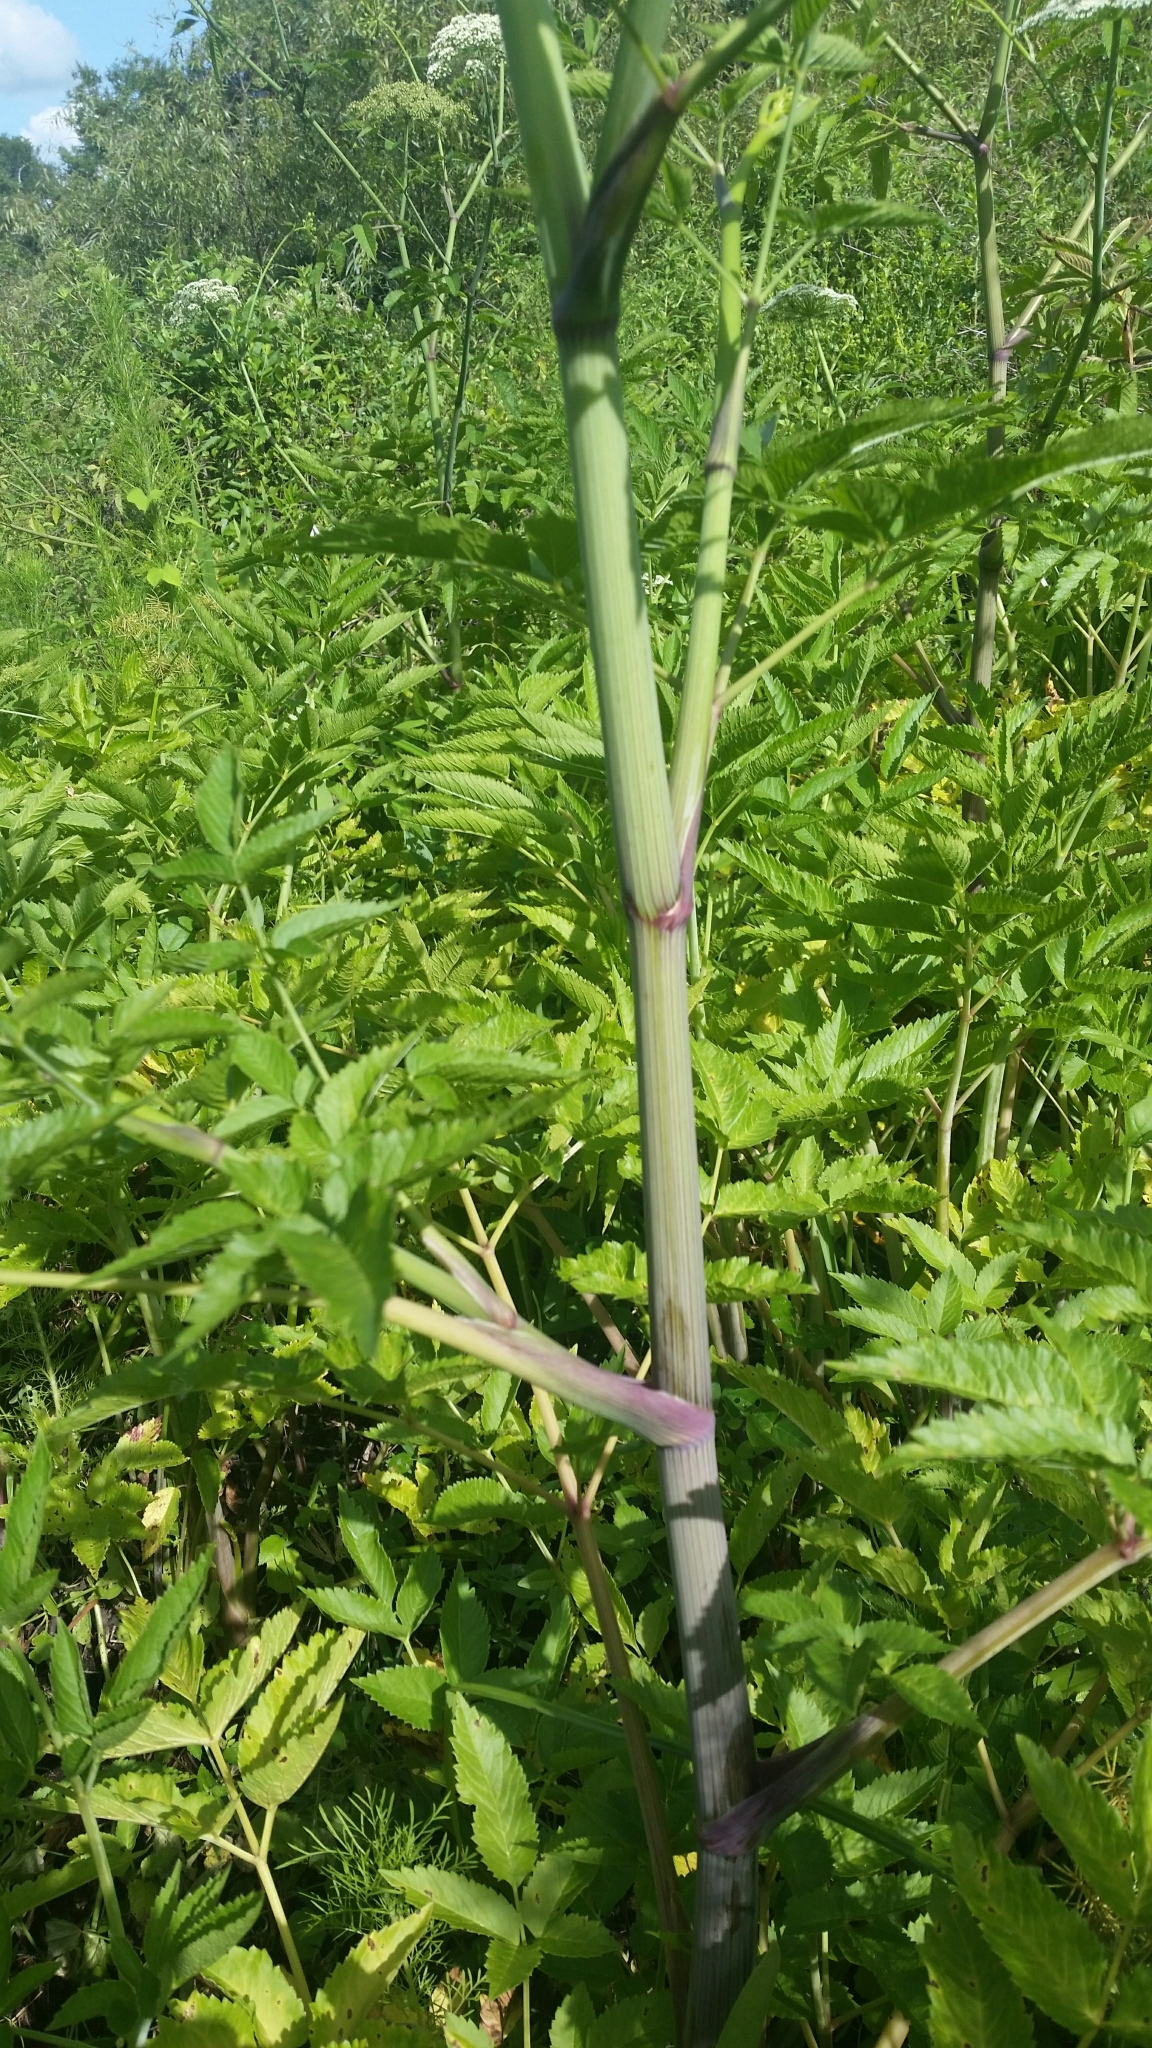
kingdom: Plantae
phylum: Tracheophyta
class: Magnoliopsida
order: Apiales
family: Apiaceae
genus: Cicuta
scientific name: Cicuta douglasii
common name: Western water-hemlock
